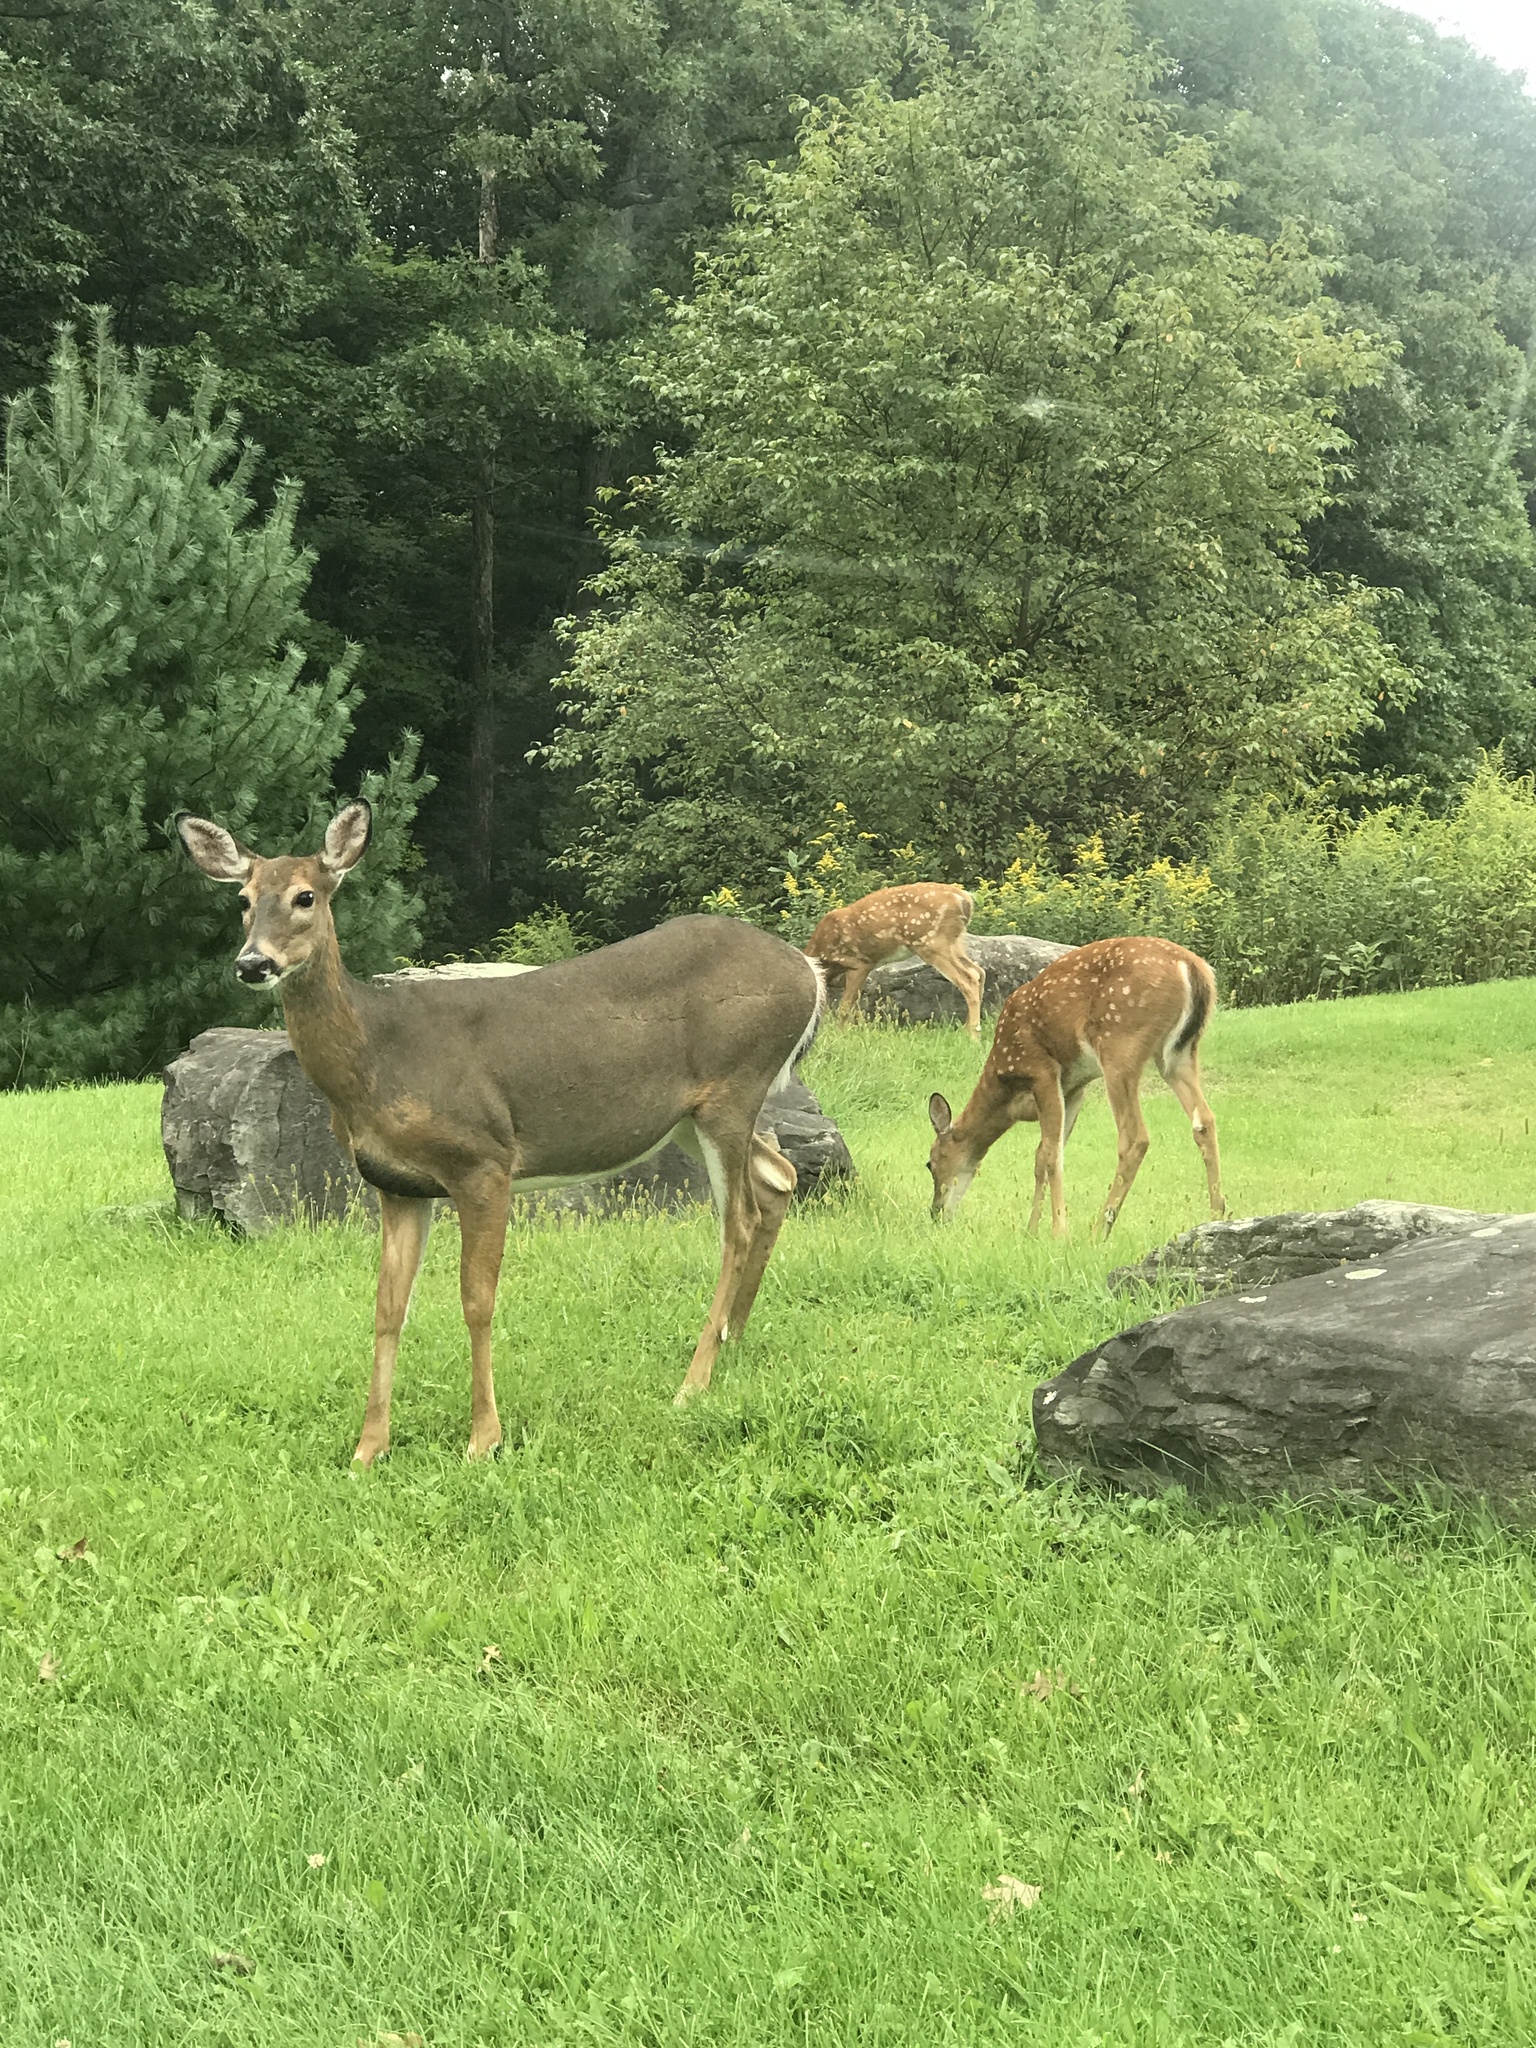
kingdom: Animalia
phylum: Chordata
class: Mammalia
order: Artiodactyla
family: Cervidae
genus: Odocoileus
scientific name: Odocoileus virginianus
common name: White-tailed deer
